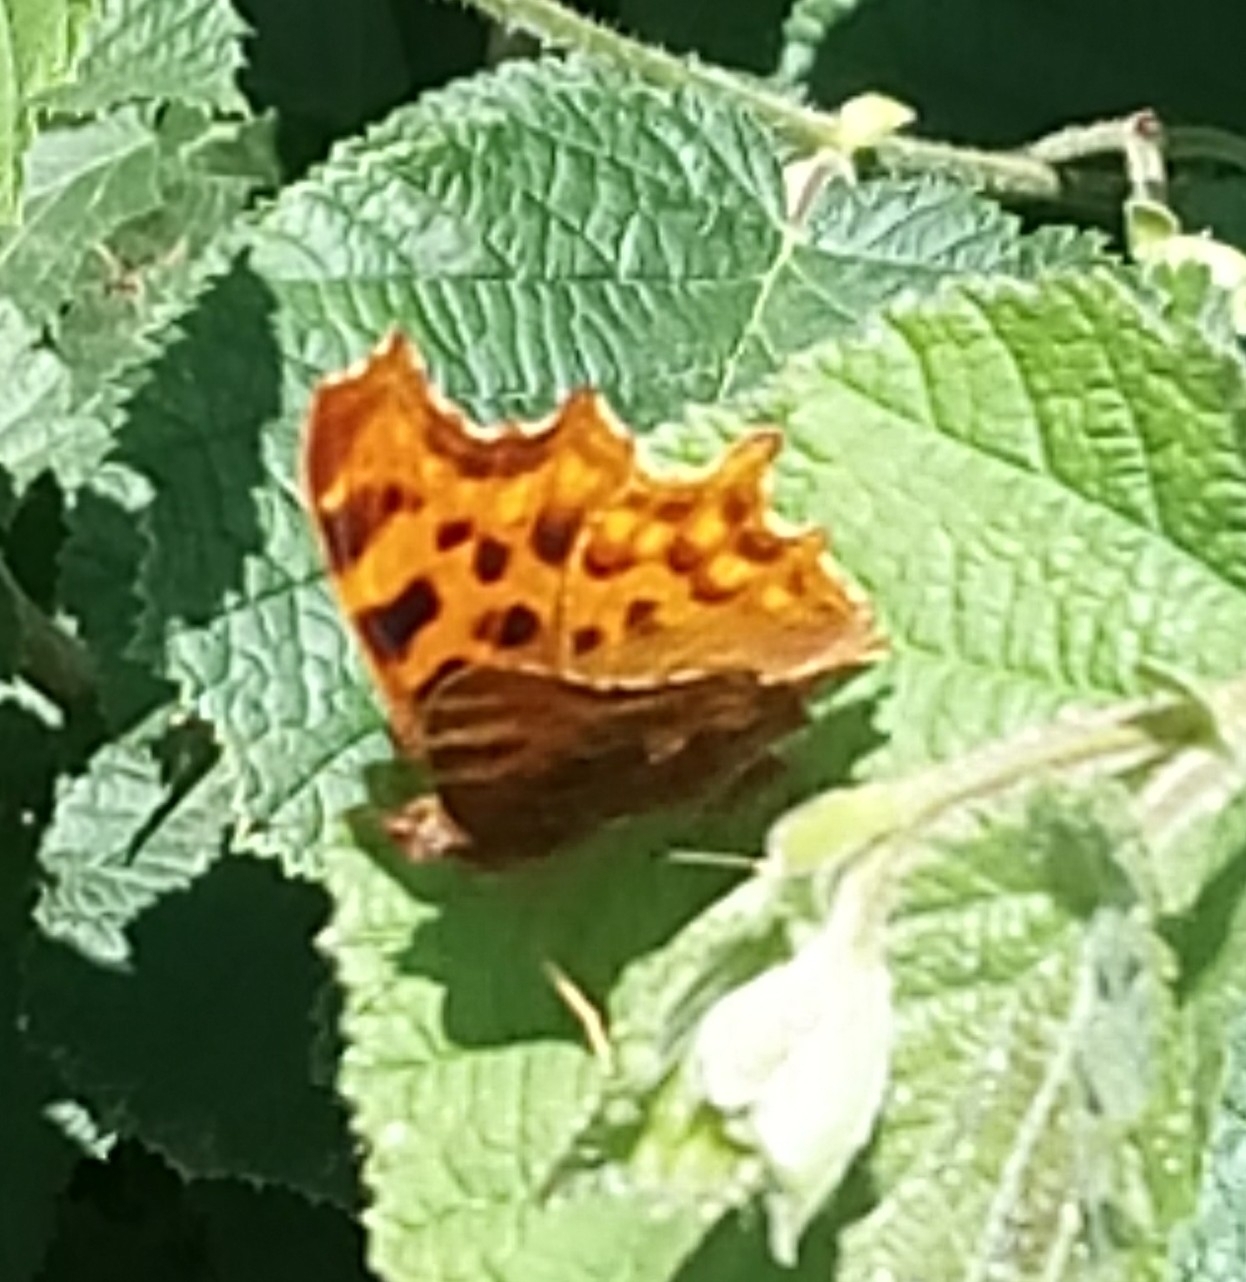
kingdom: Animalia
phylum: Arthropoda
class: Insecta
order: Lepidoptera
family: Nymphalidae
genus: Polygonia
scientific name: Polygonia c-album
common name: Comma
